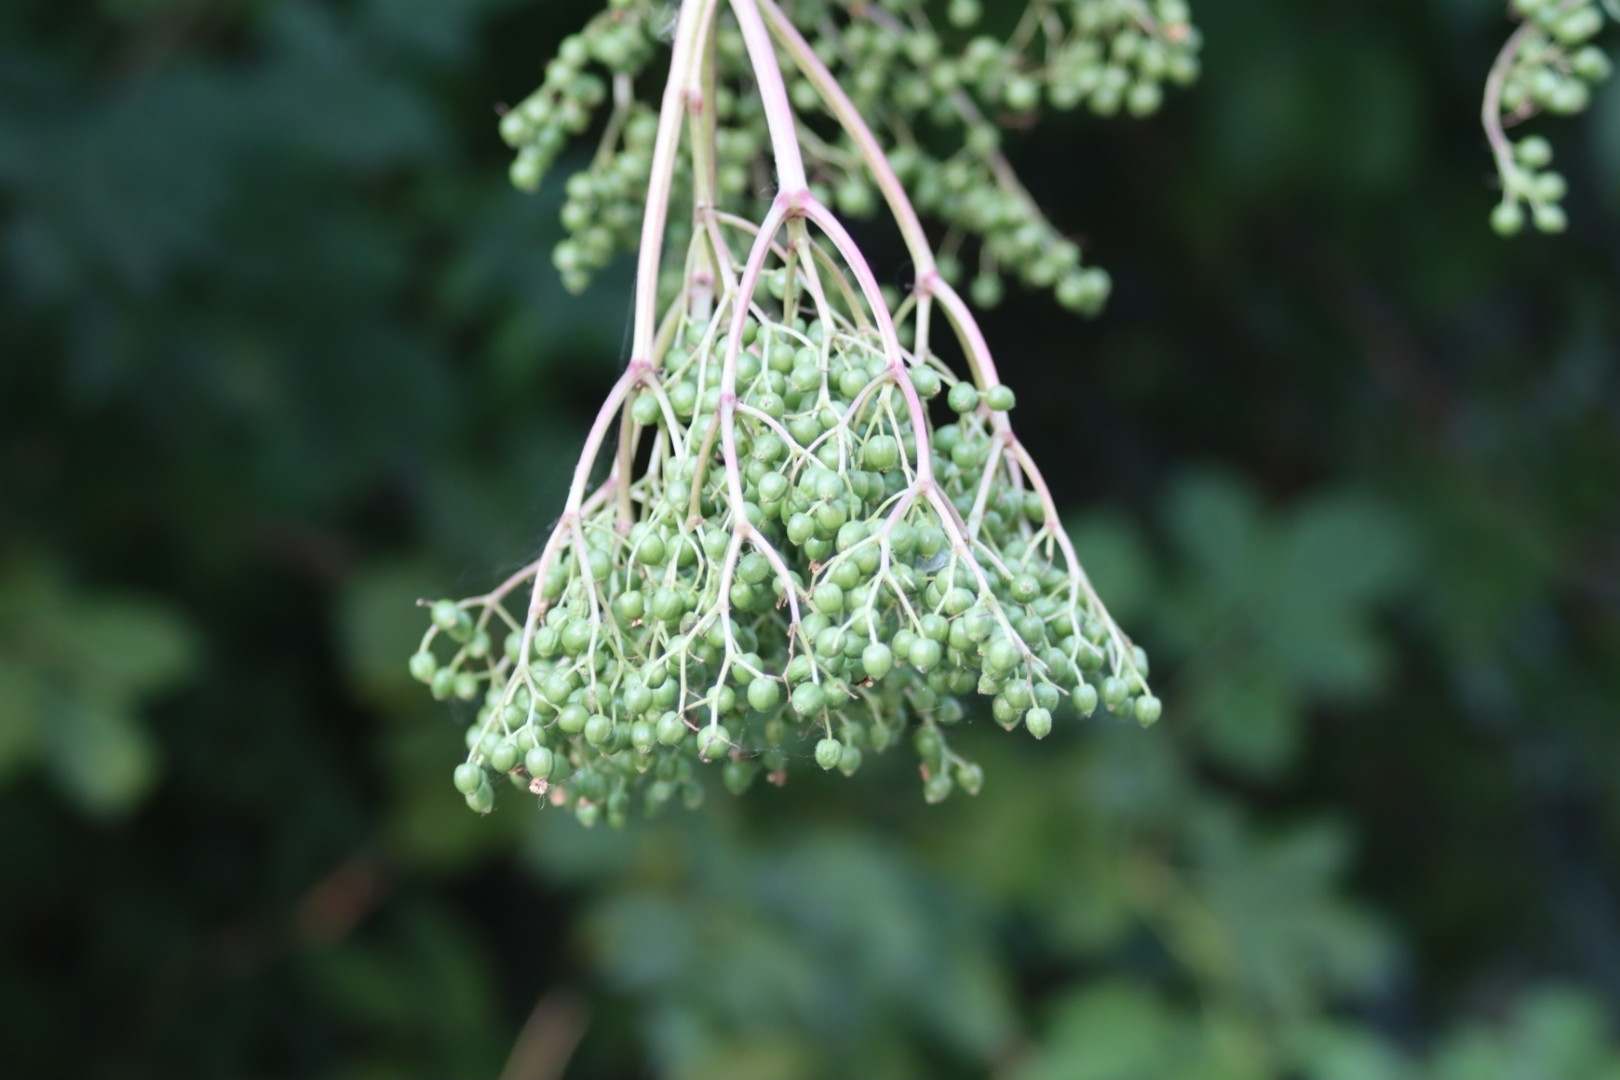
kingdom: Plantae
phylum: Tracheophyta
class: Magnoliopsida
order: Dipsacales
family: Viburnaceae
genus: Sambucus
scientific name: Sambucus nigra
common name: Elder
